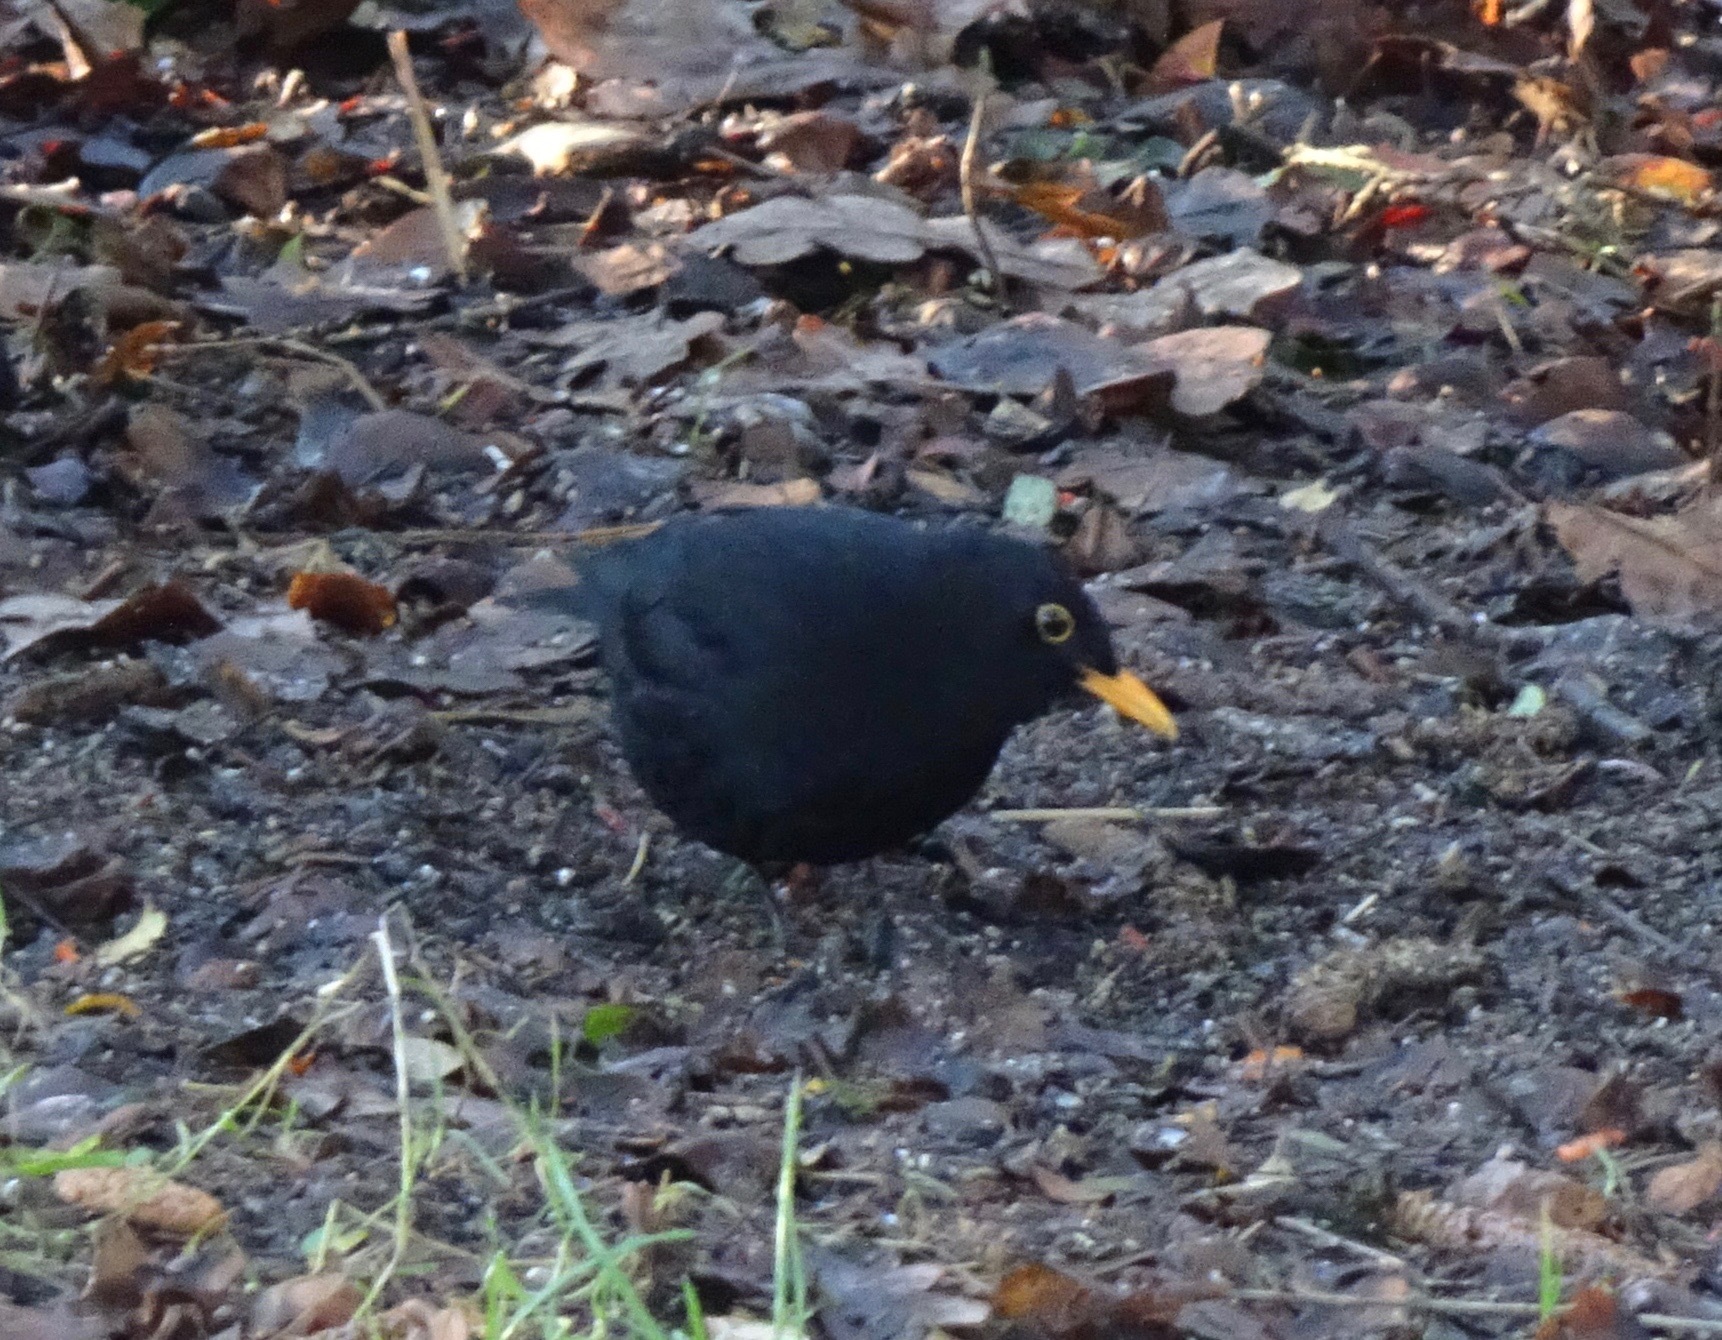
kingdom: Animalia
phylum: Chordata
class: Aves
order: Passeriformes
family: Turdidae
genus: Turdus
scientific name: Turdus merula
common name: Common blackbird
